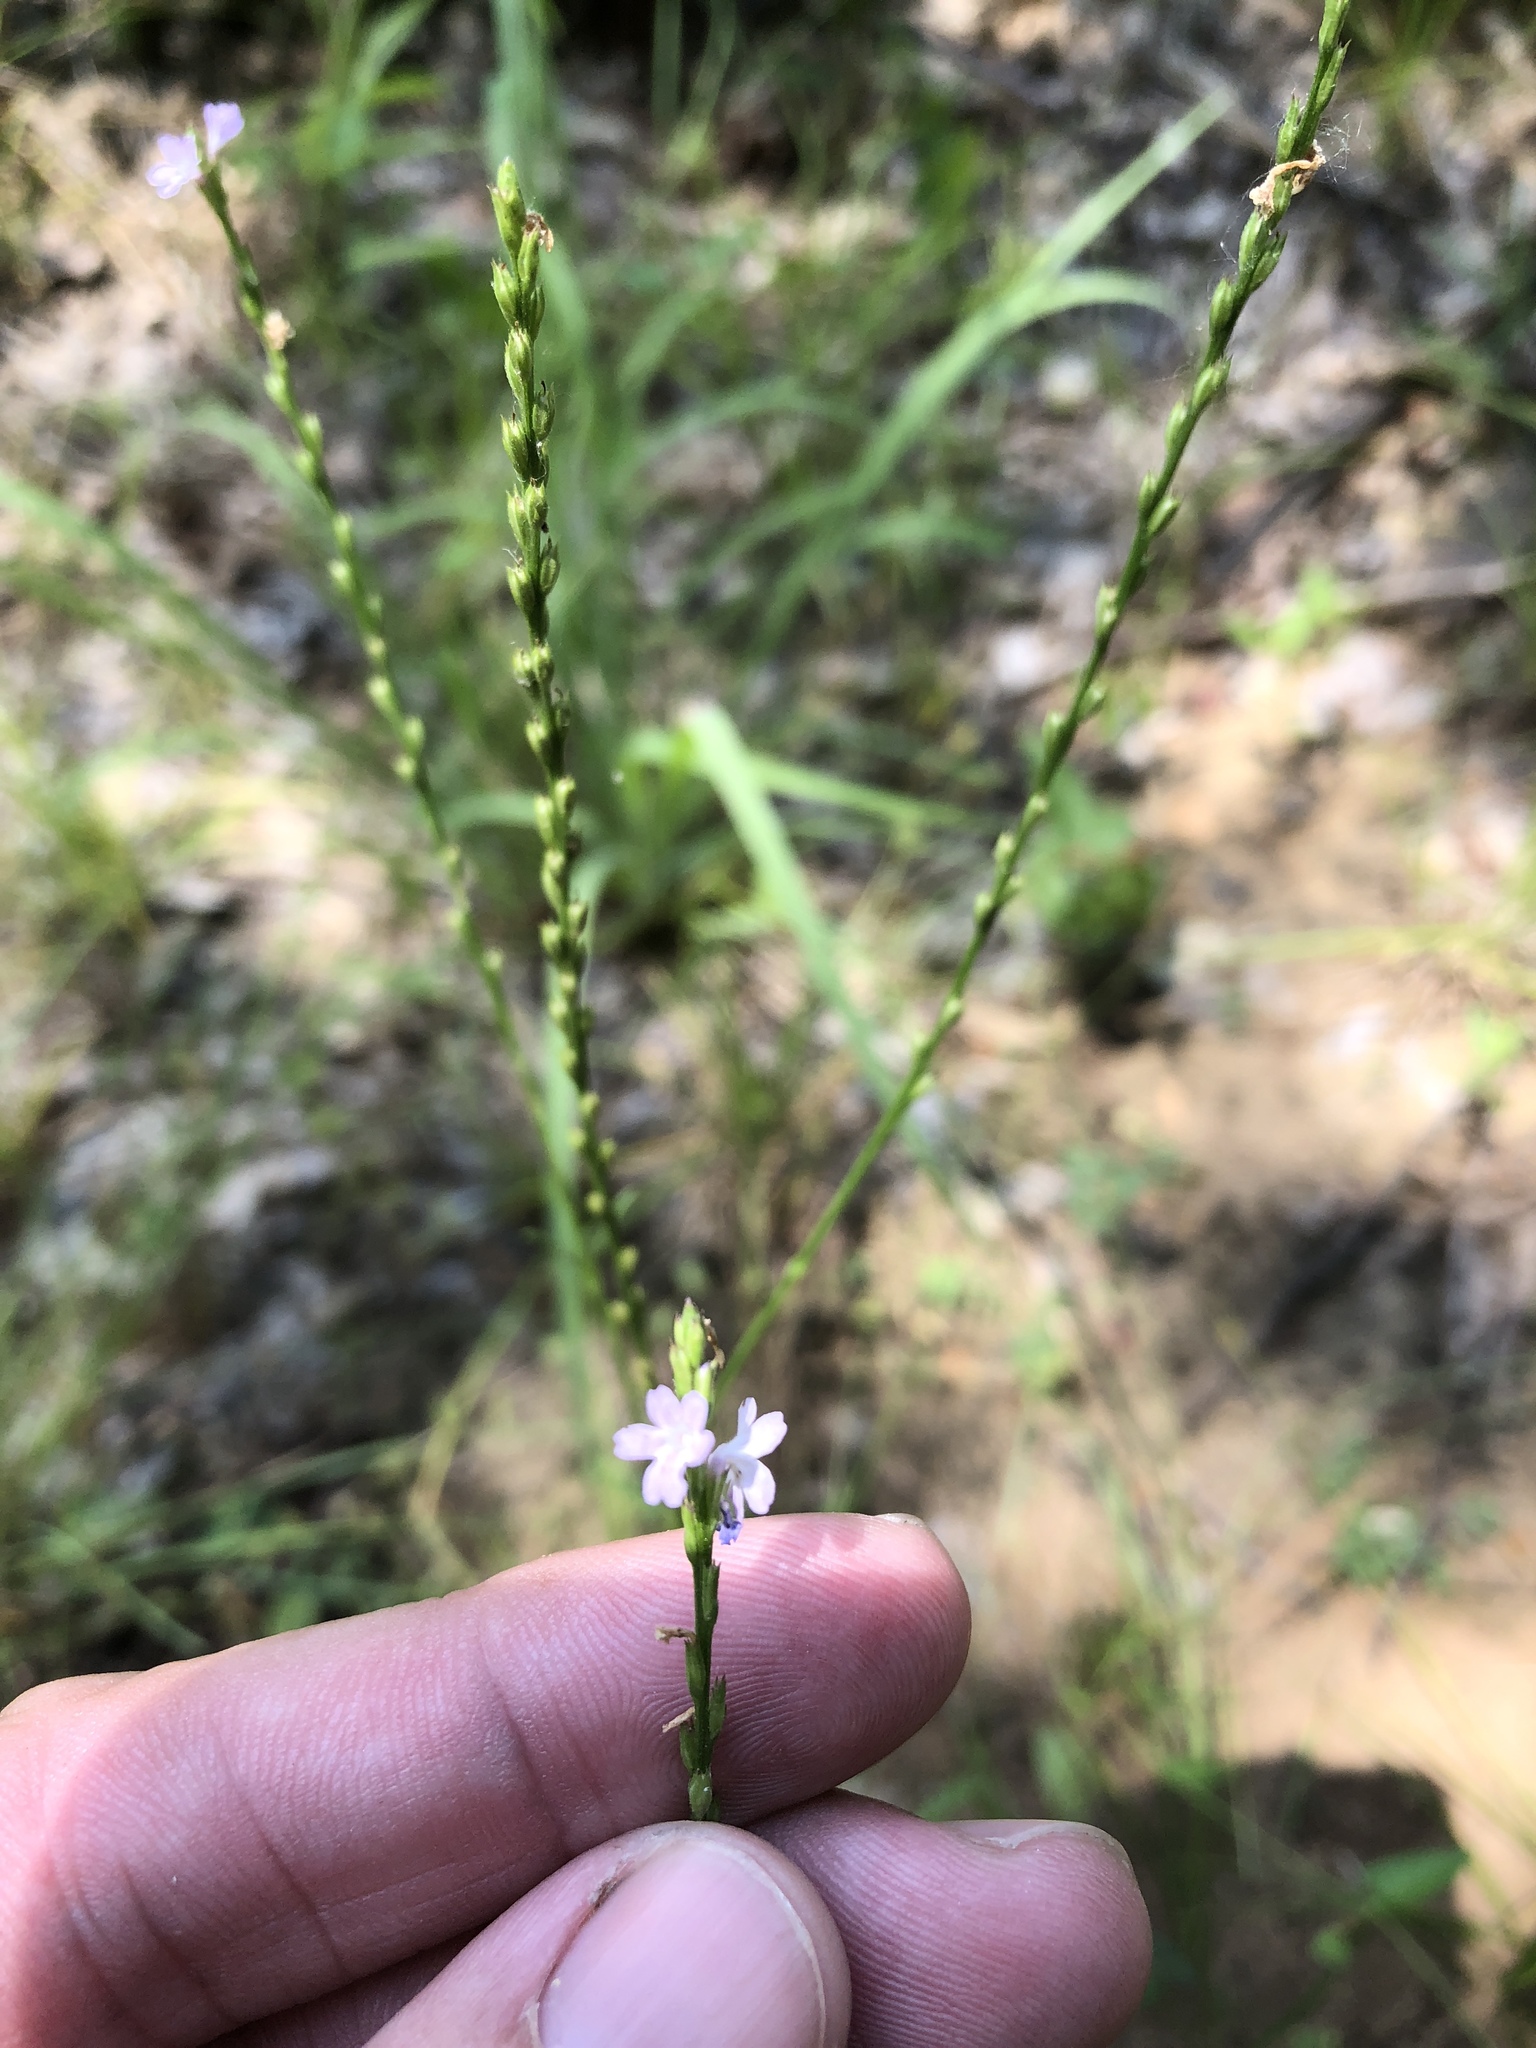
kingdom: Plantae
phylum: Tracheophyta
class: Magnoliopsida
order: Lamiales
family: Verbenaceae
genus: Verbena
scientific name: Verbena halei
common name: Texas vervain
